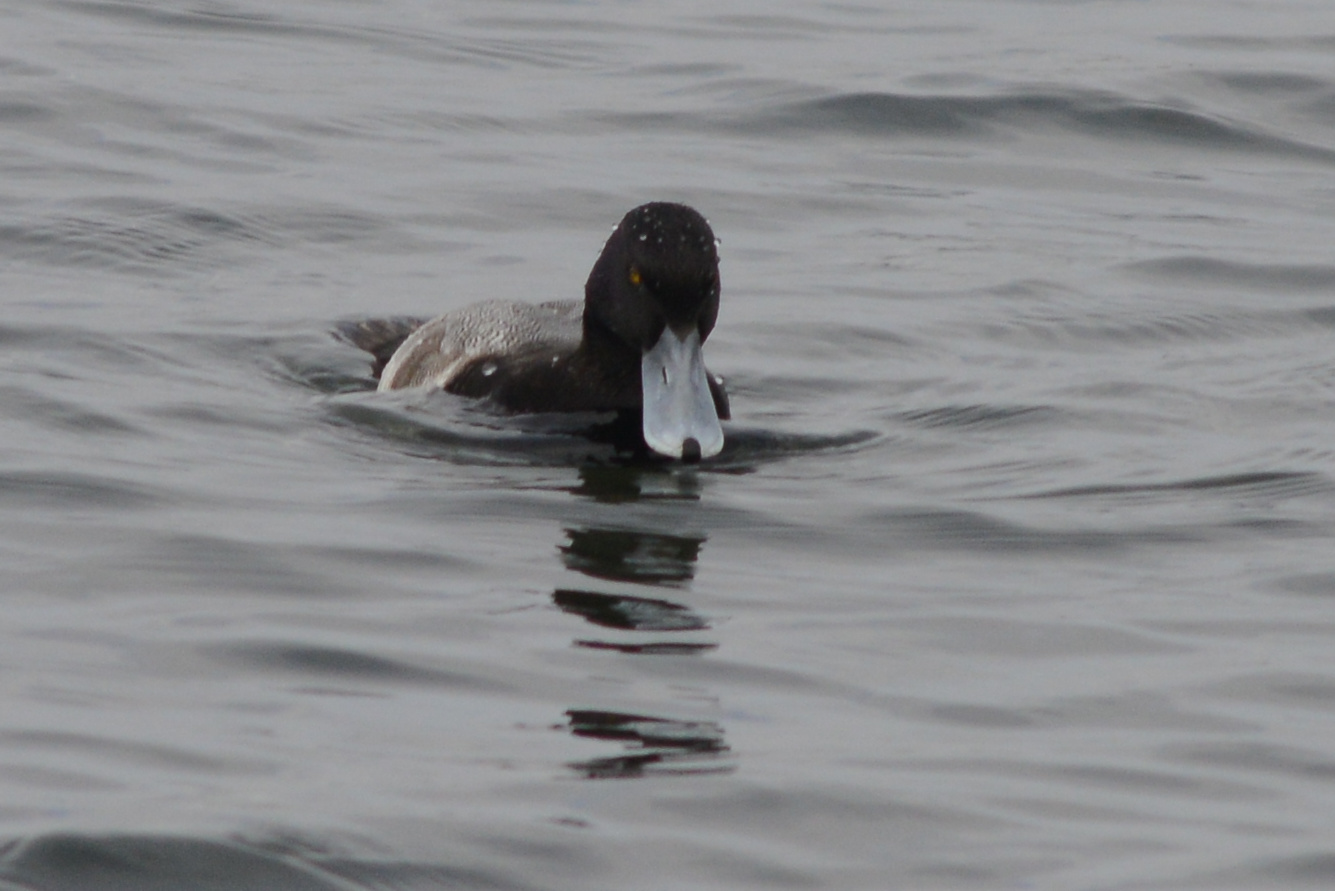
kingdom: Animalia
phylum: Chordata
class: Aves
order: Anseriformes
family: Anatidae
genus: Aythya
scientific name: Aythya affinis
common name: Lesser scaup
